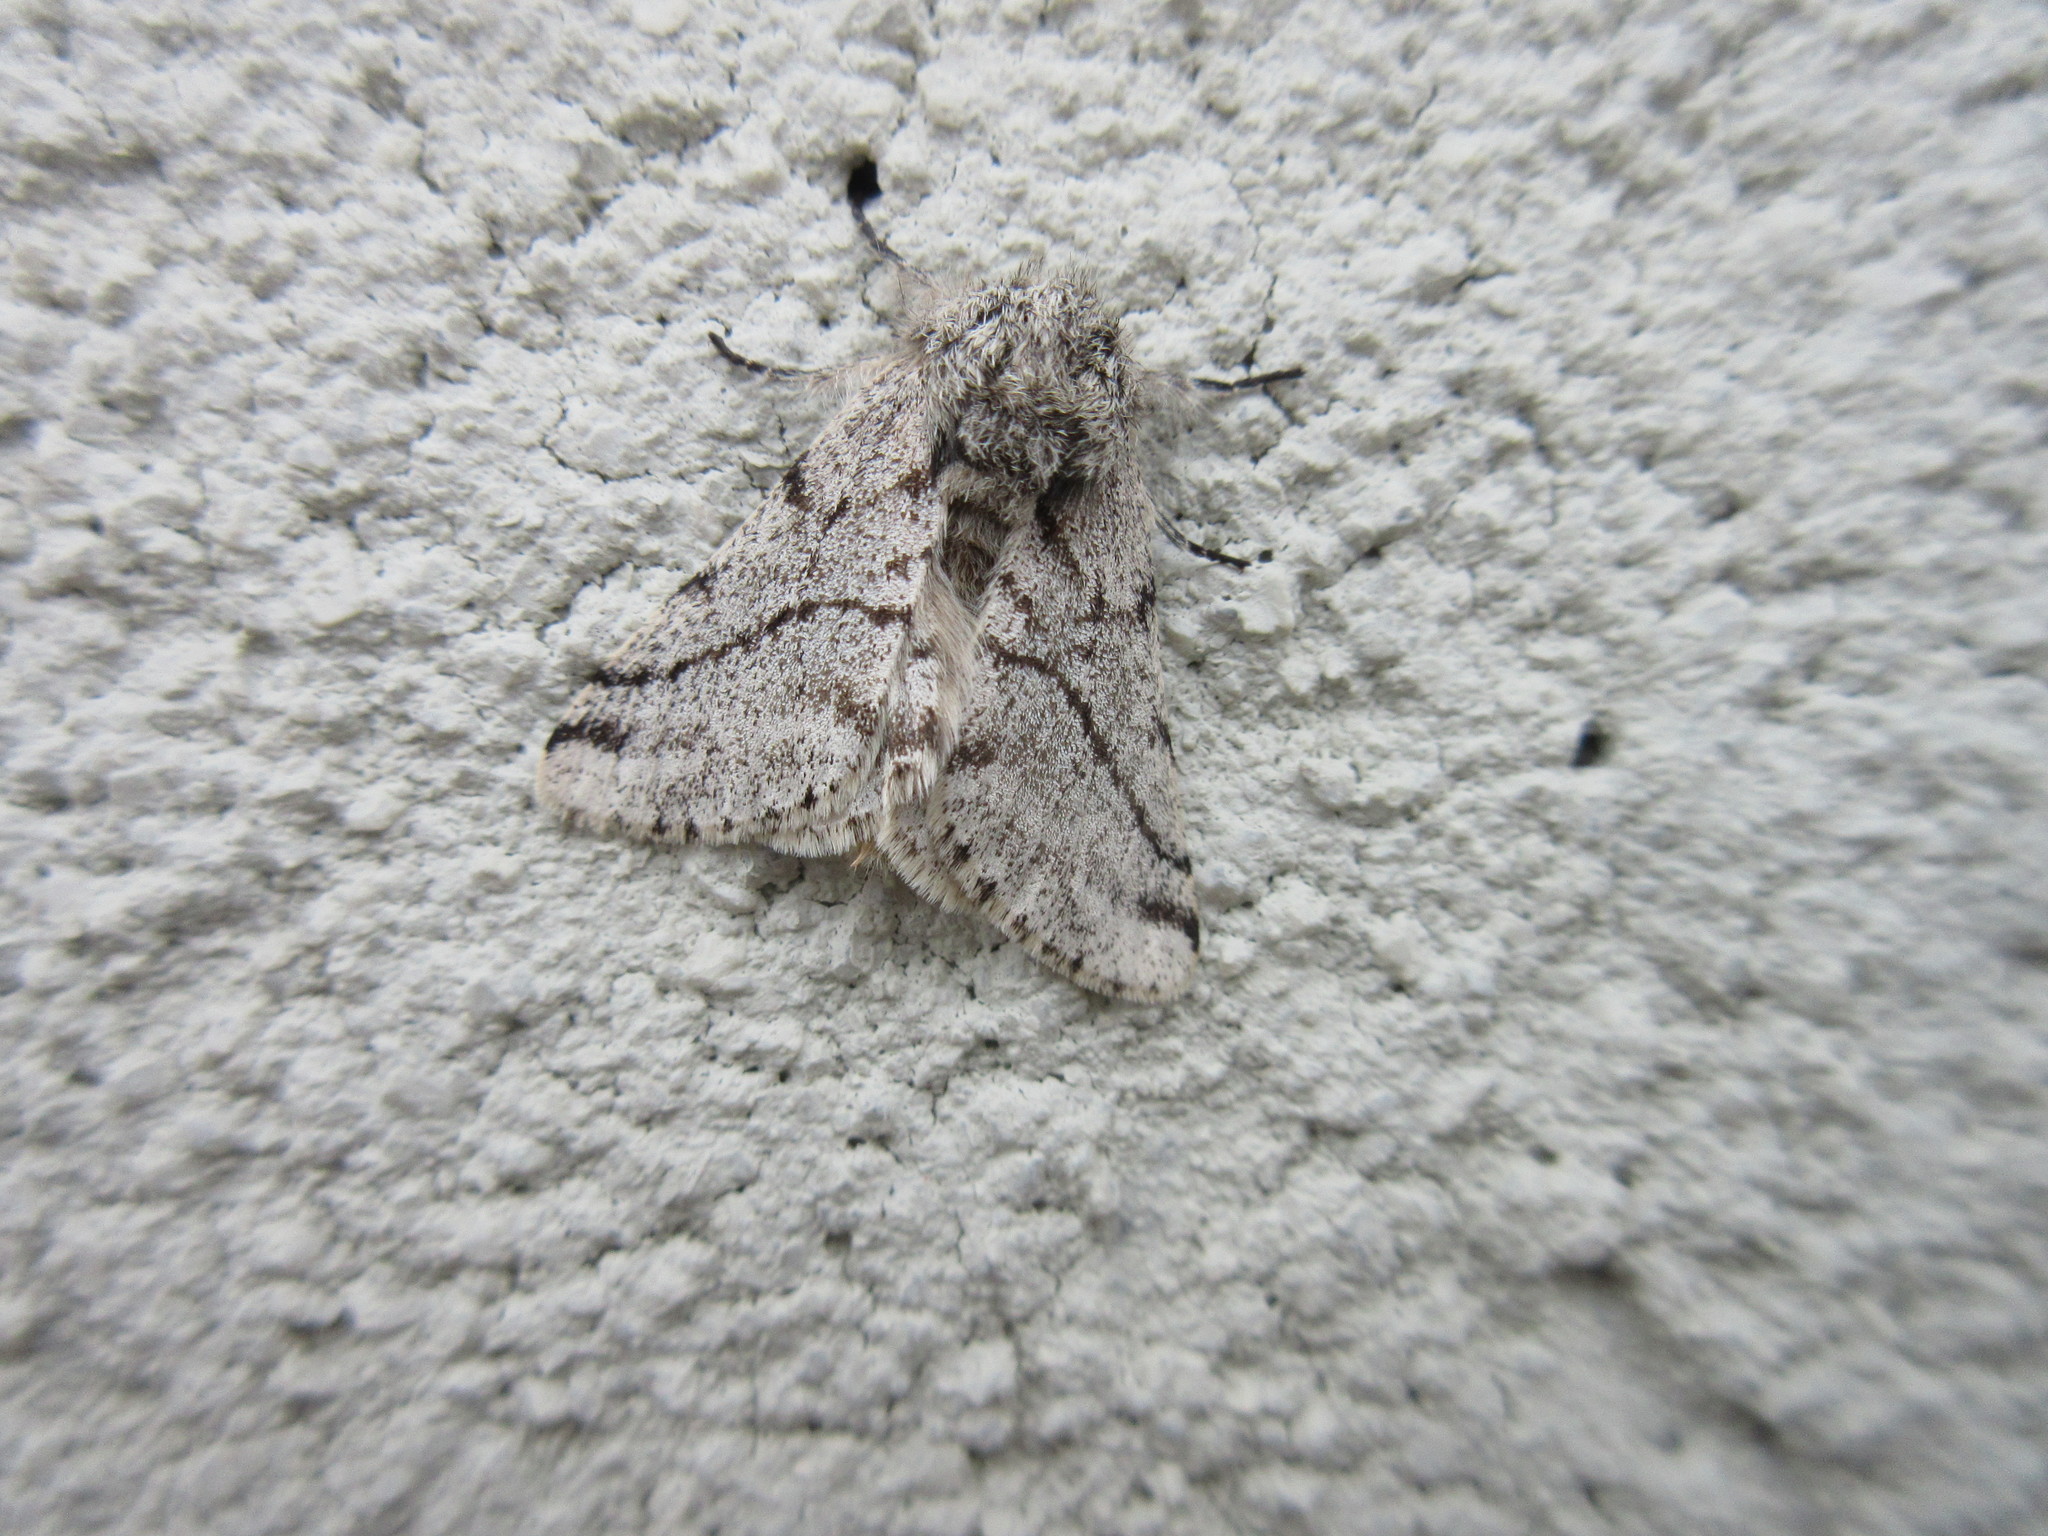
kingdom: Animalia
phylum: Arthropoda
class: Insecta
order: Lepidoptera
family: Geometridae
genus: Lycia
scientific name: Lycia ursaria
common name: Stout spanworm
